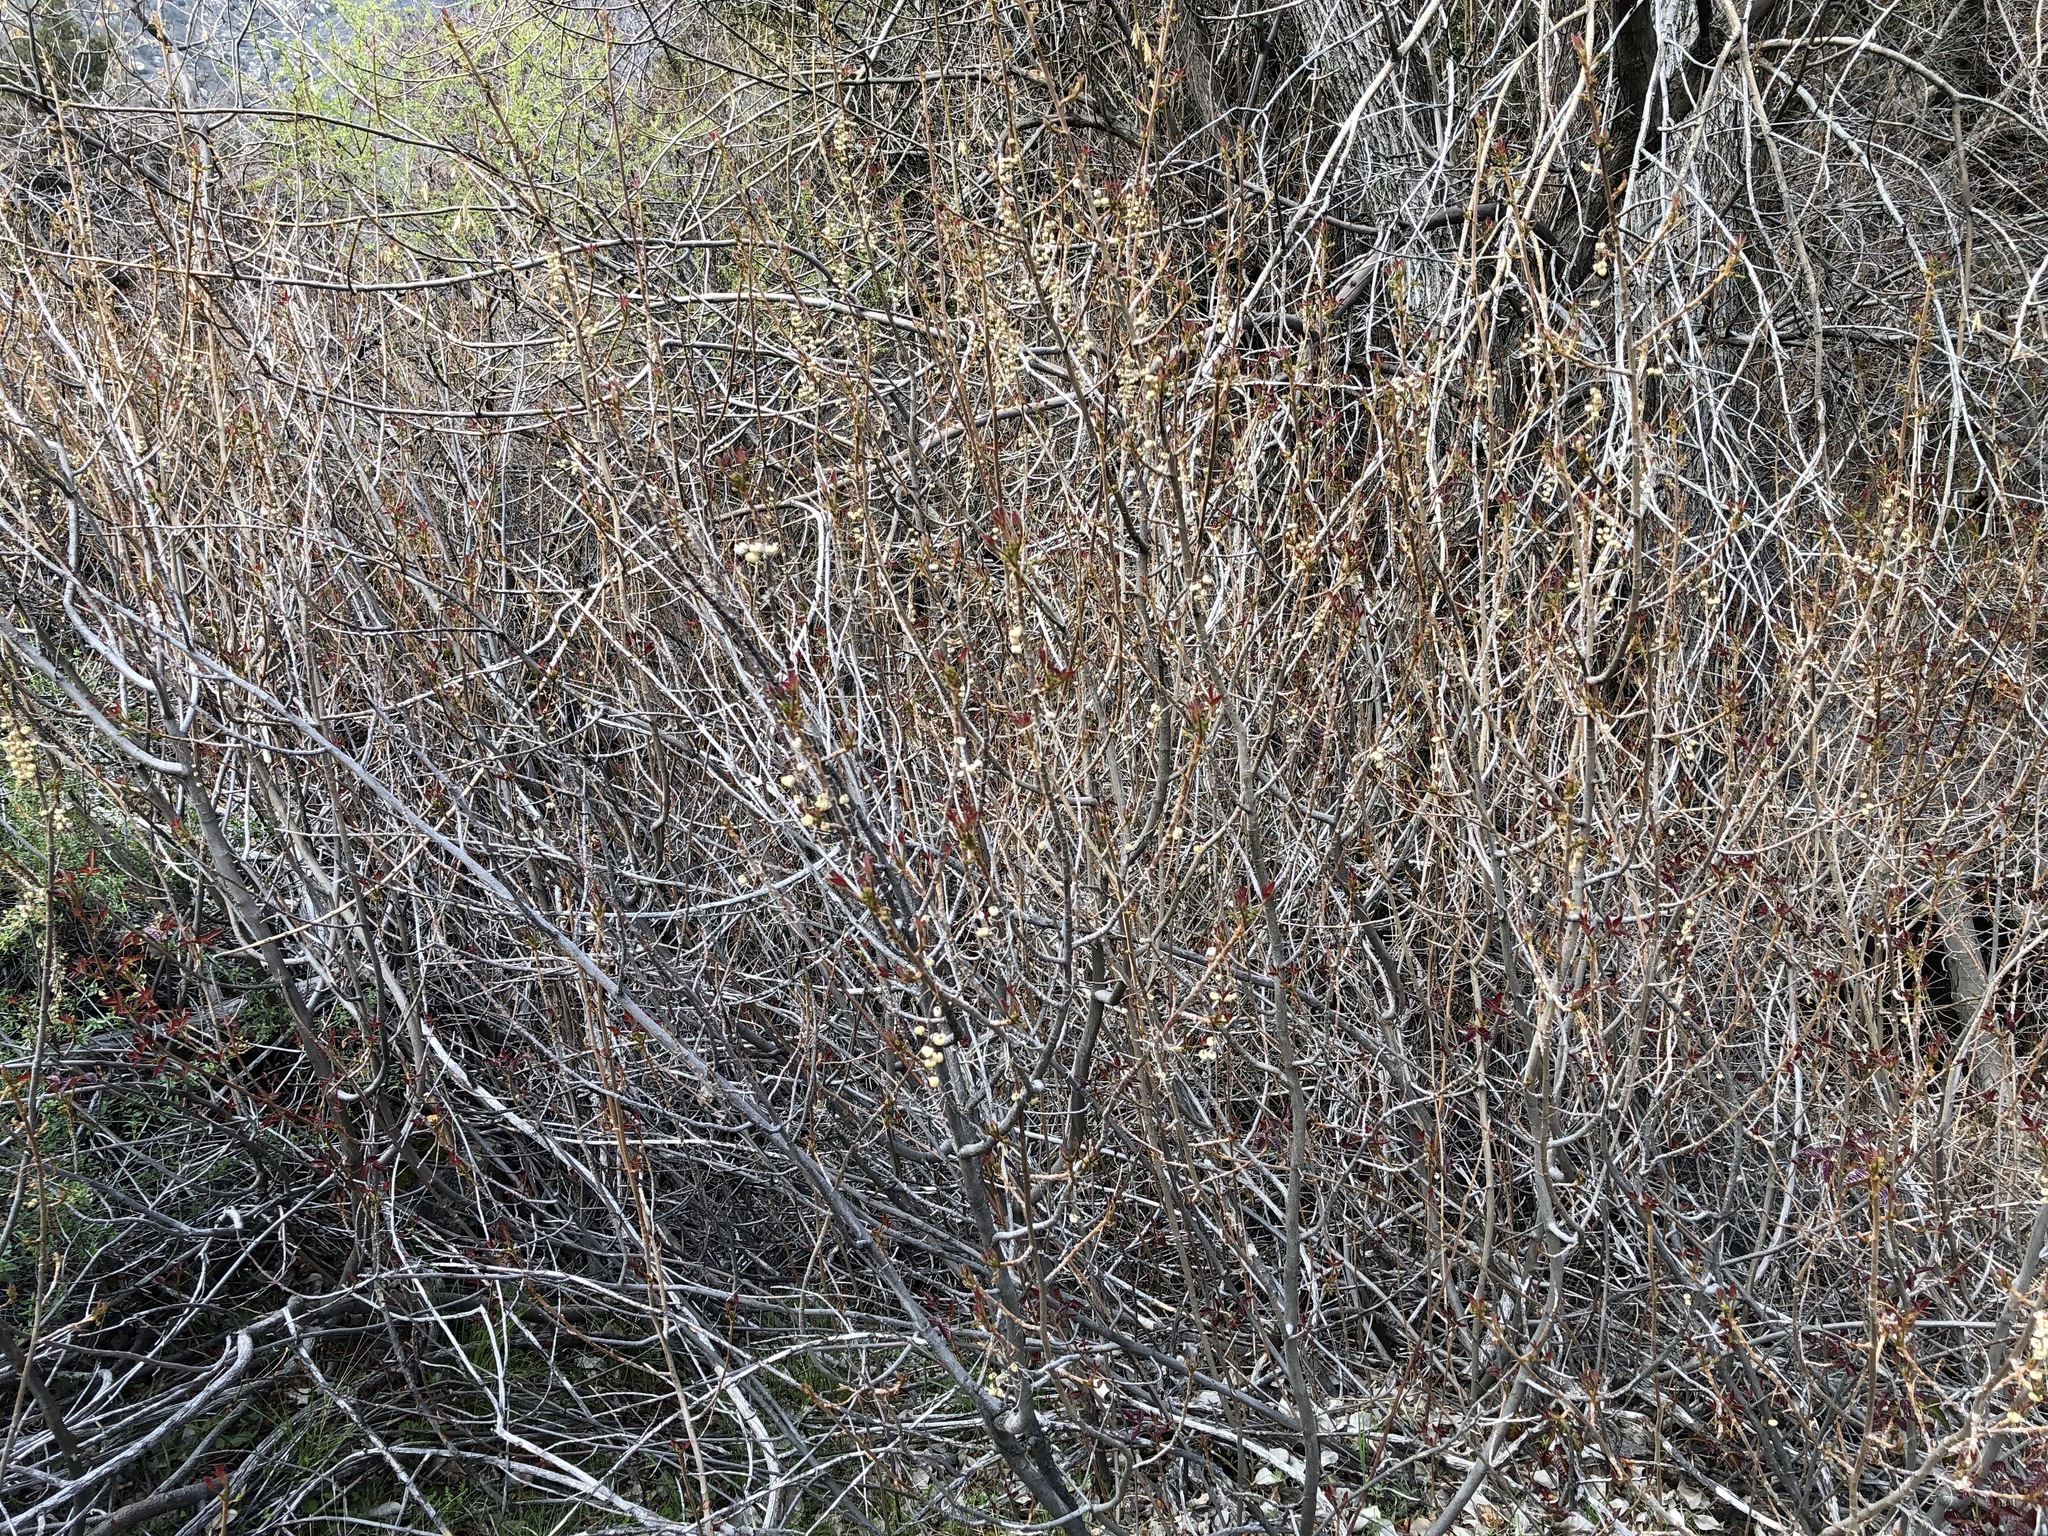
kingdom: Plantae
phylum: Tracheophyta
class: Magnoliopsida
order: Sapindales
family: Anacardiaceae
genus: Toxicodendron
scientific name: Toxicodendron diversilobum
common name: Pacific poison-oak
